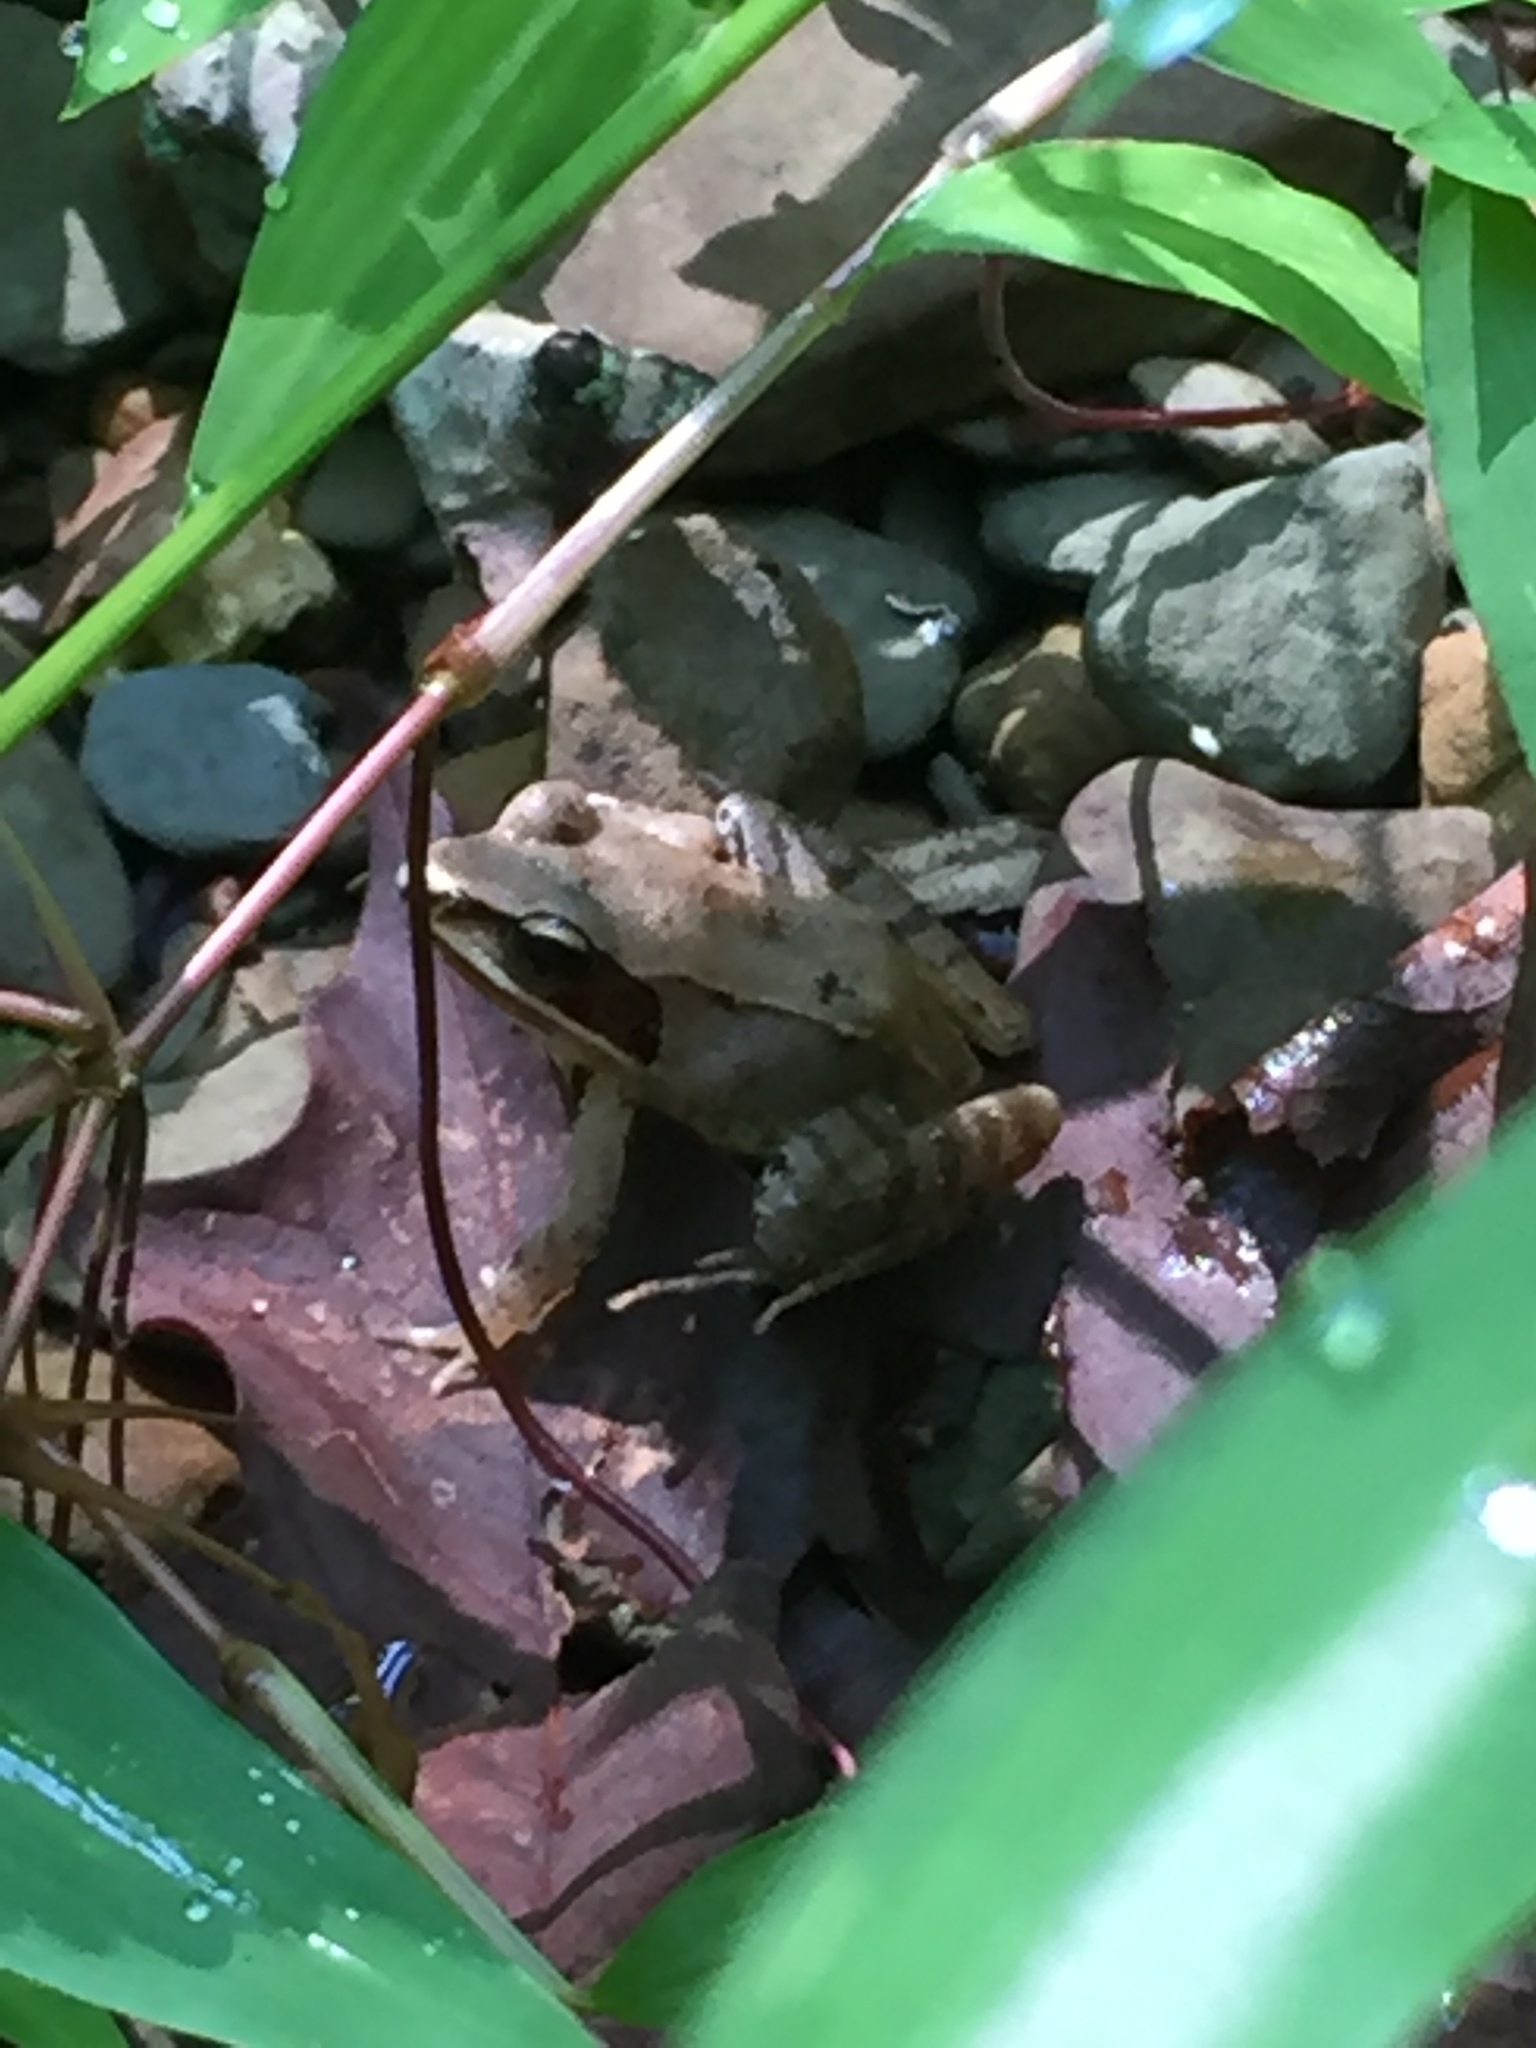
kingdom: Animalia
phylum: Chordata
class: Amphibia
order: Anura
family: Ranidae
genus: Lithobates
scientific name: Lithobates sylvaticus
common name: Wood frog
